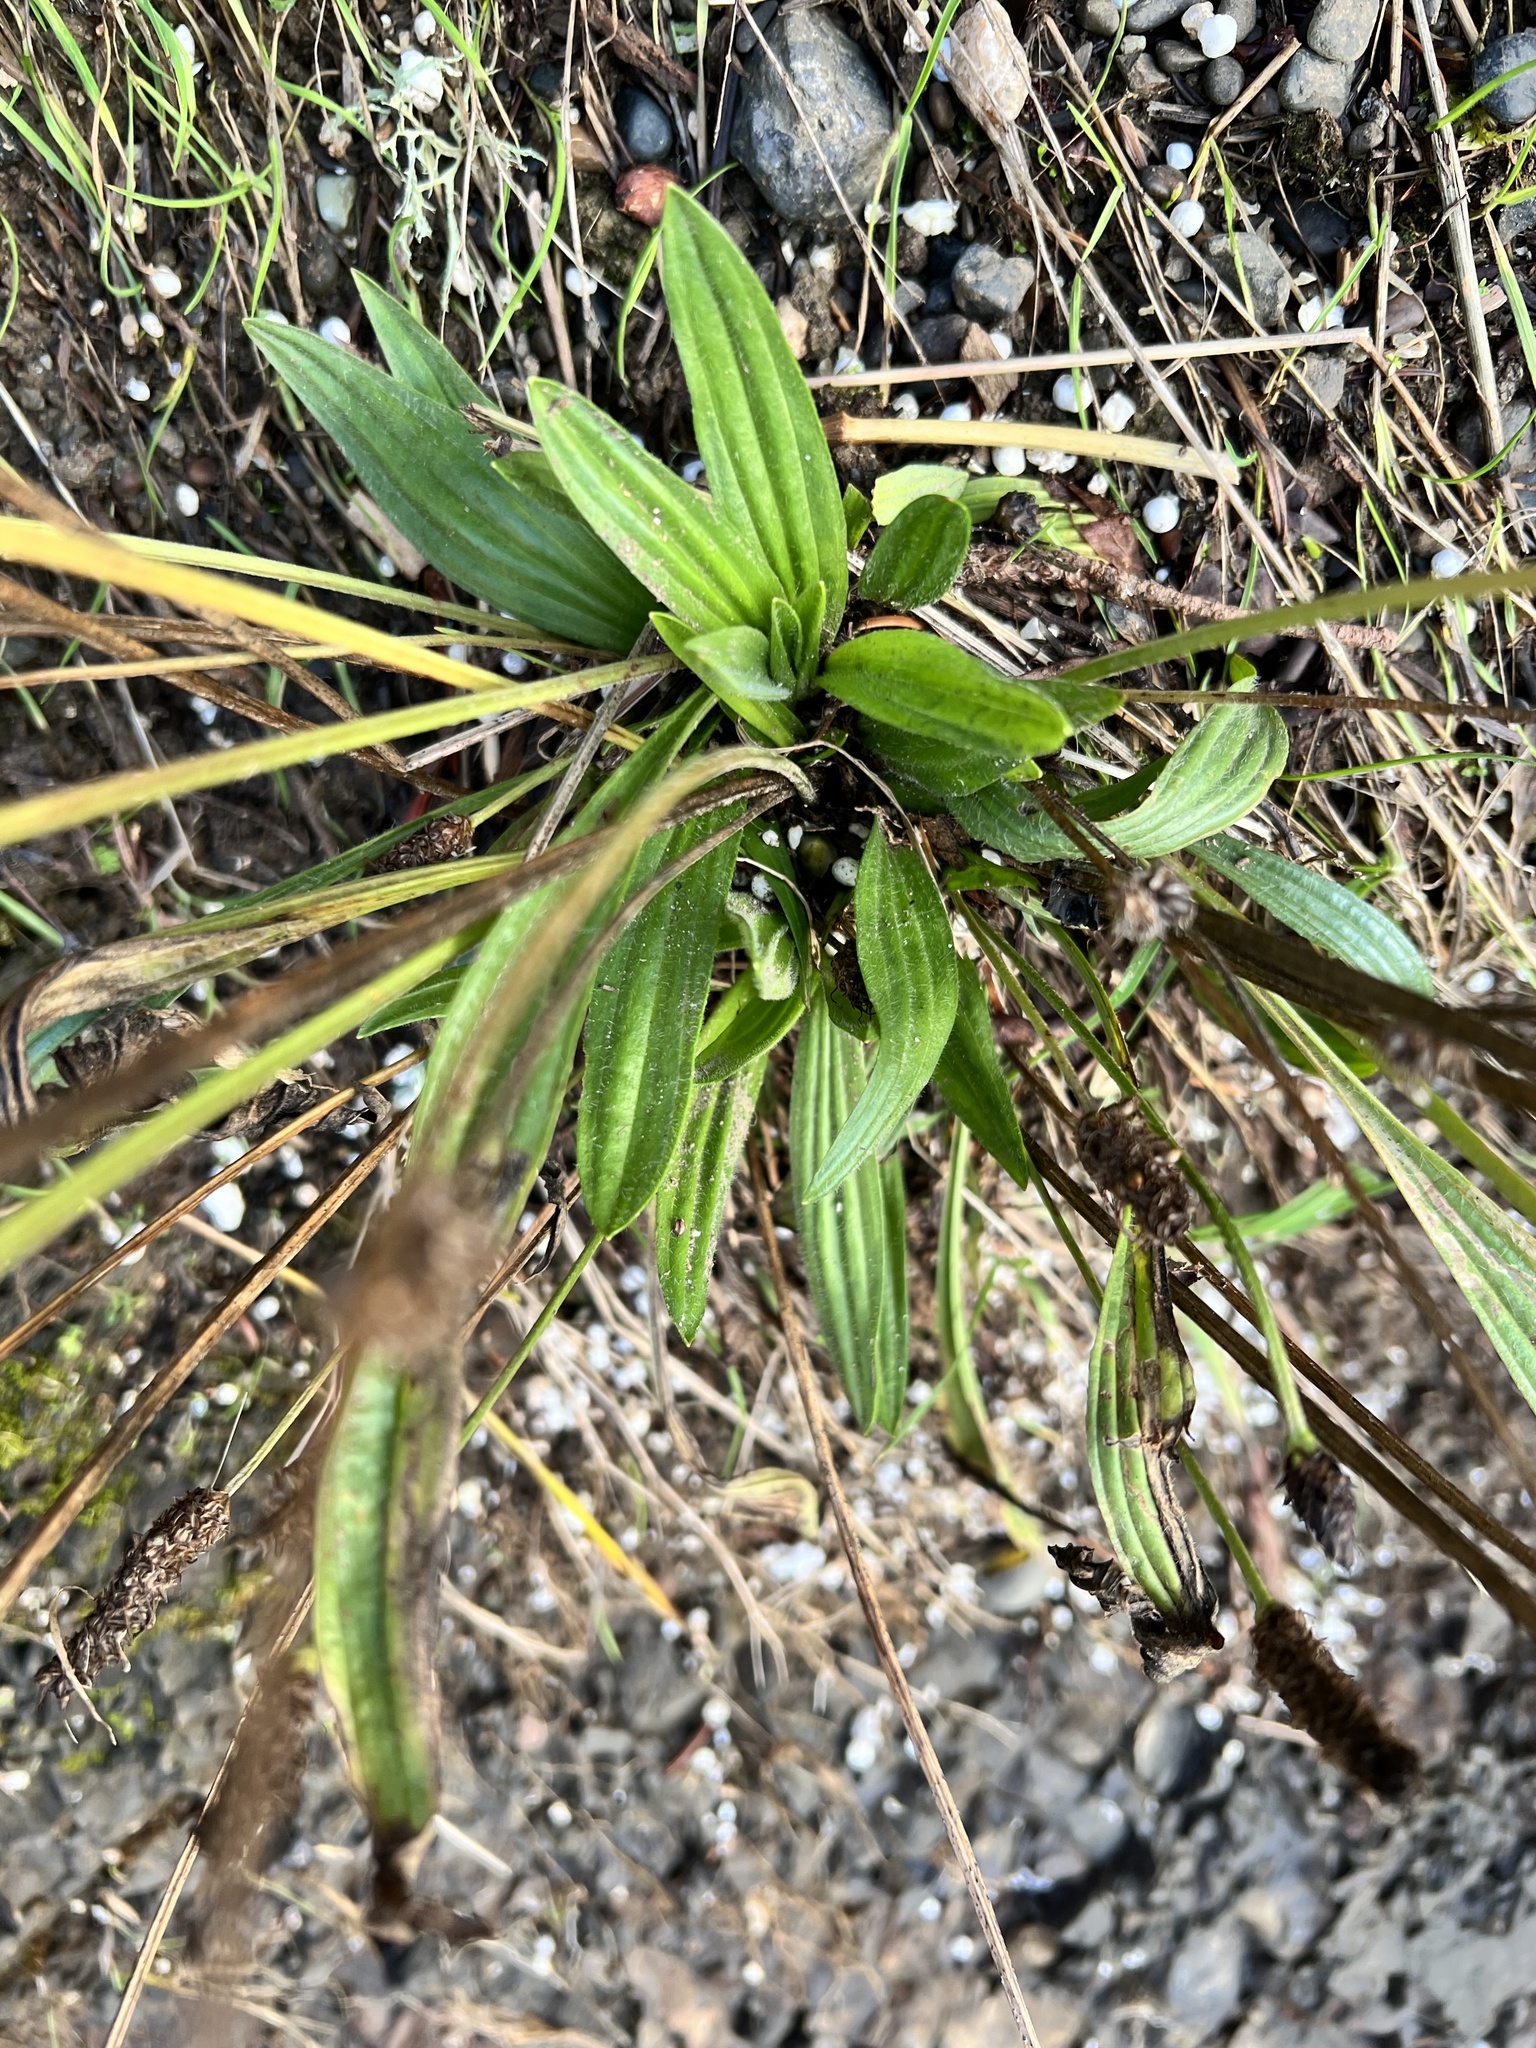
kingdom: Plantae
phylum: Tracheophyta
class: Magnoliopsida
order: Lamiales
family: Plantaginaceae
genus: Plantago
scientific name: Plantago lanceolata
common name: Ribwort plantain
